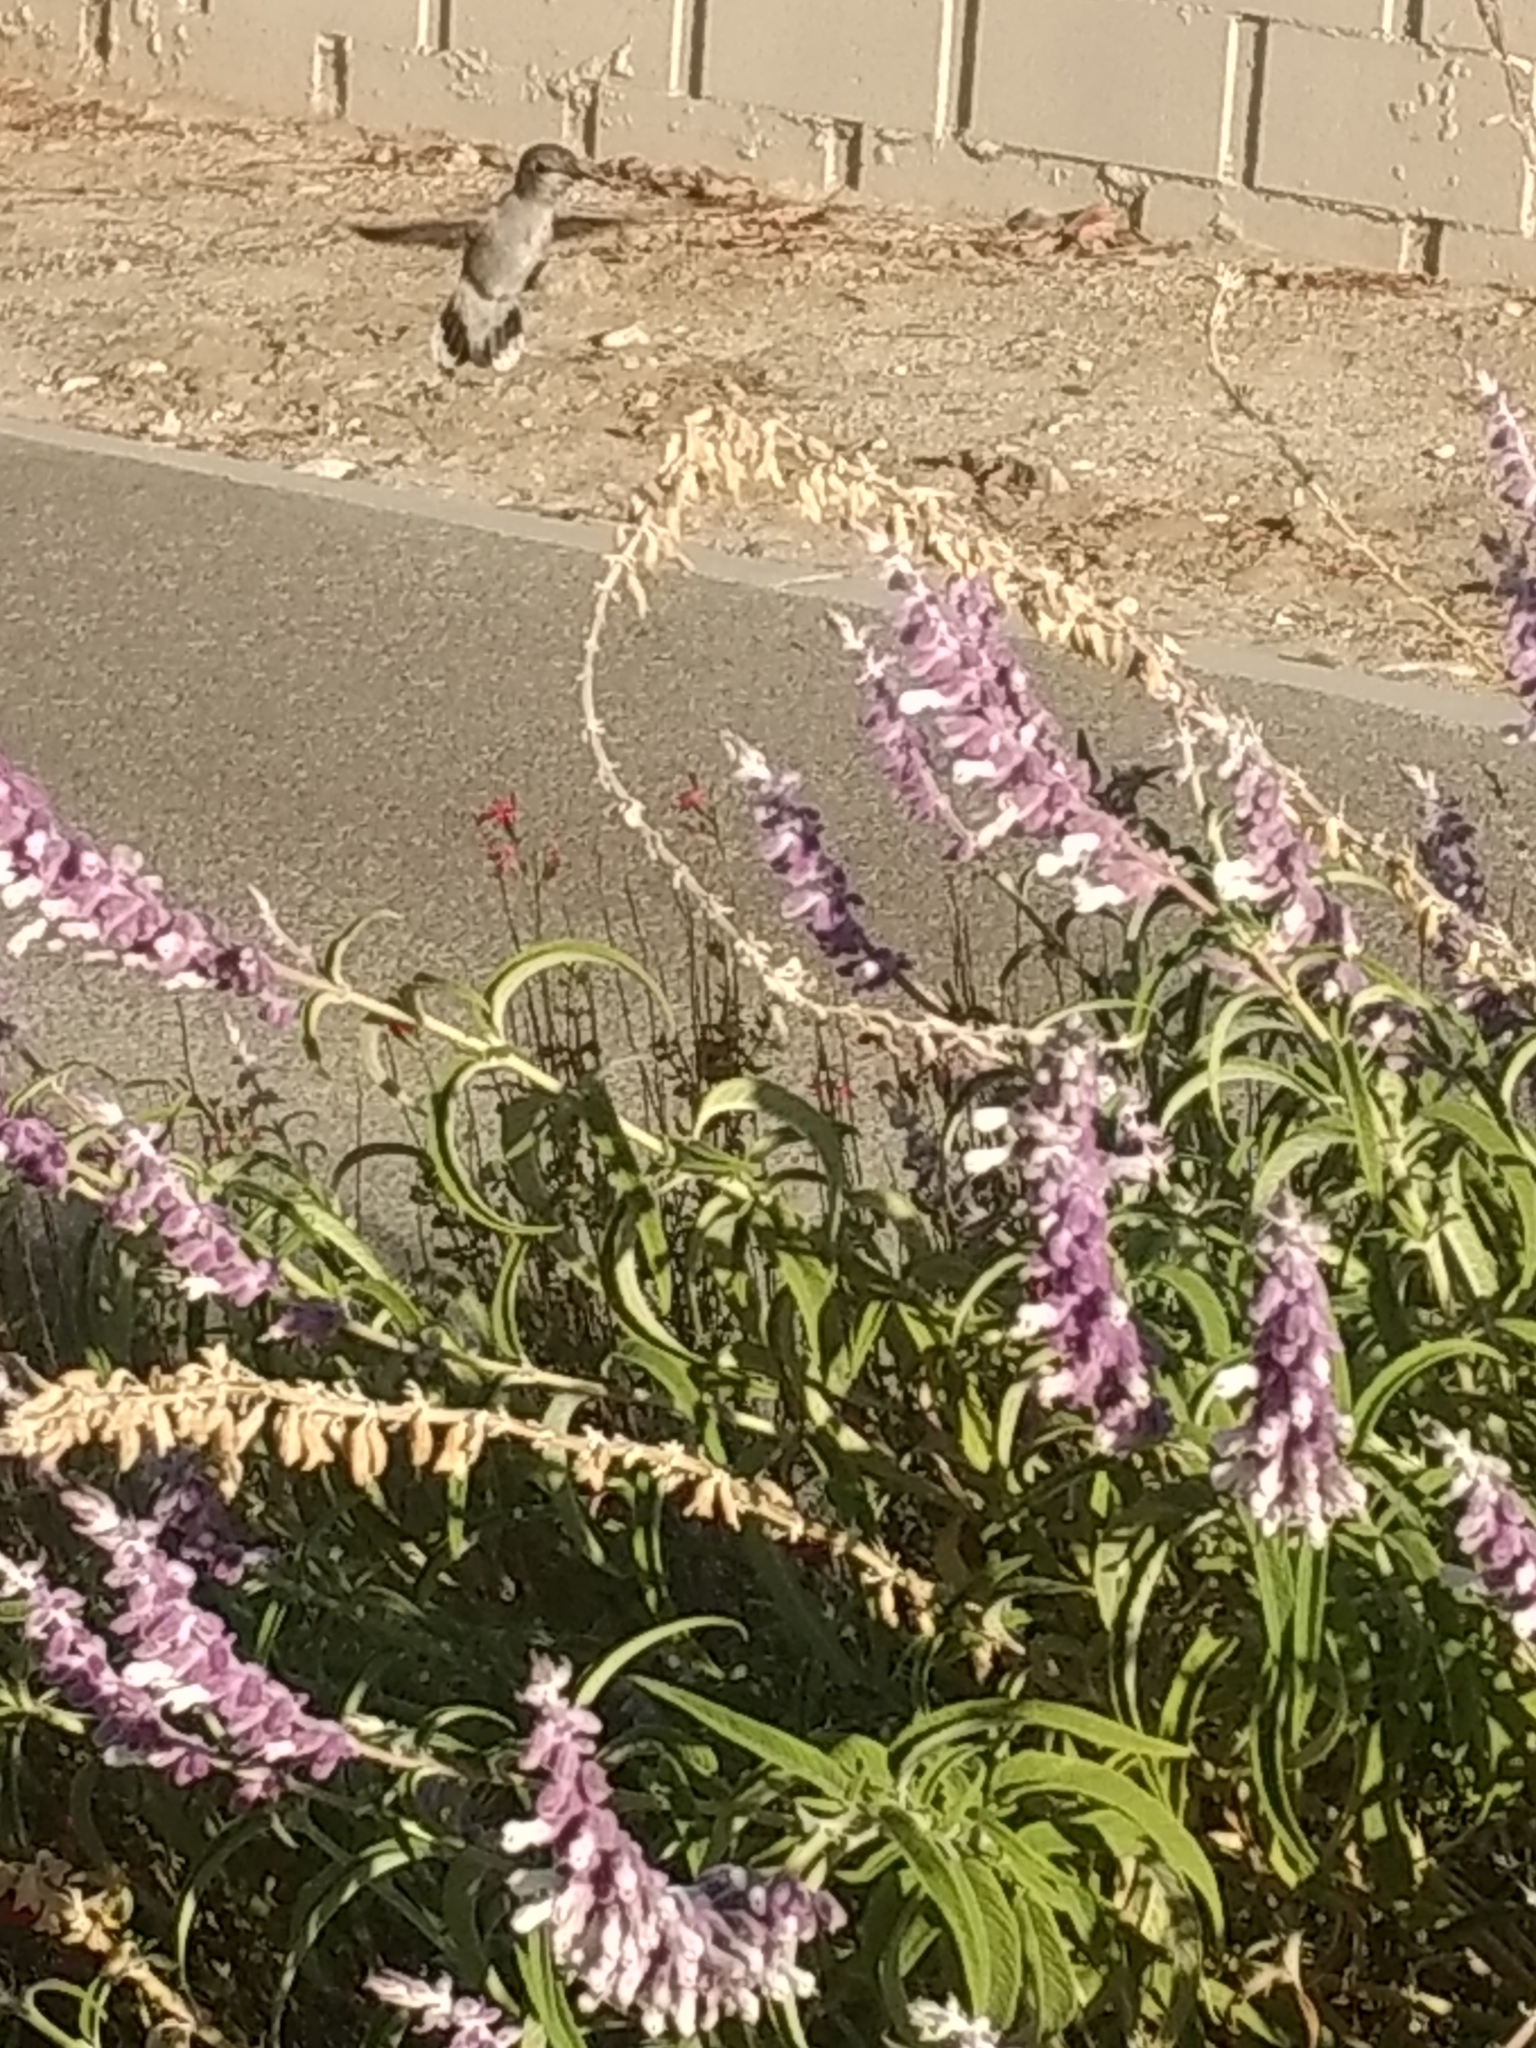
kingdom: Animalia
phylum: Chordata
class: Aves
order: Apodiformes
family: Trochilidae
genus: Calypte
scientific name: Calypte costae
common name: Costa's hummingbird
